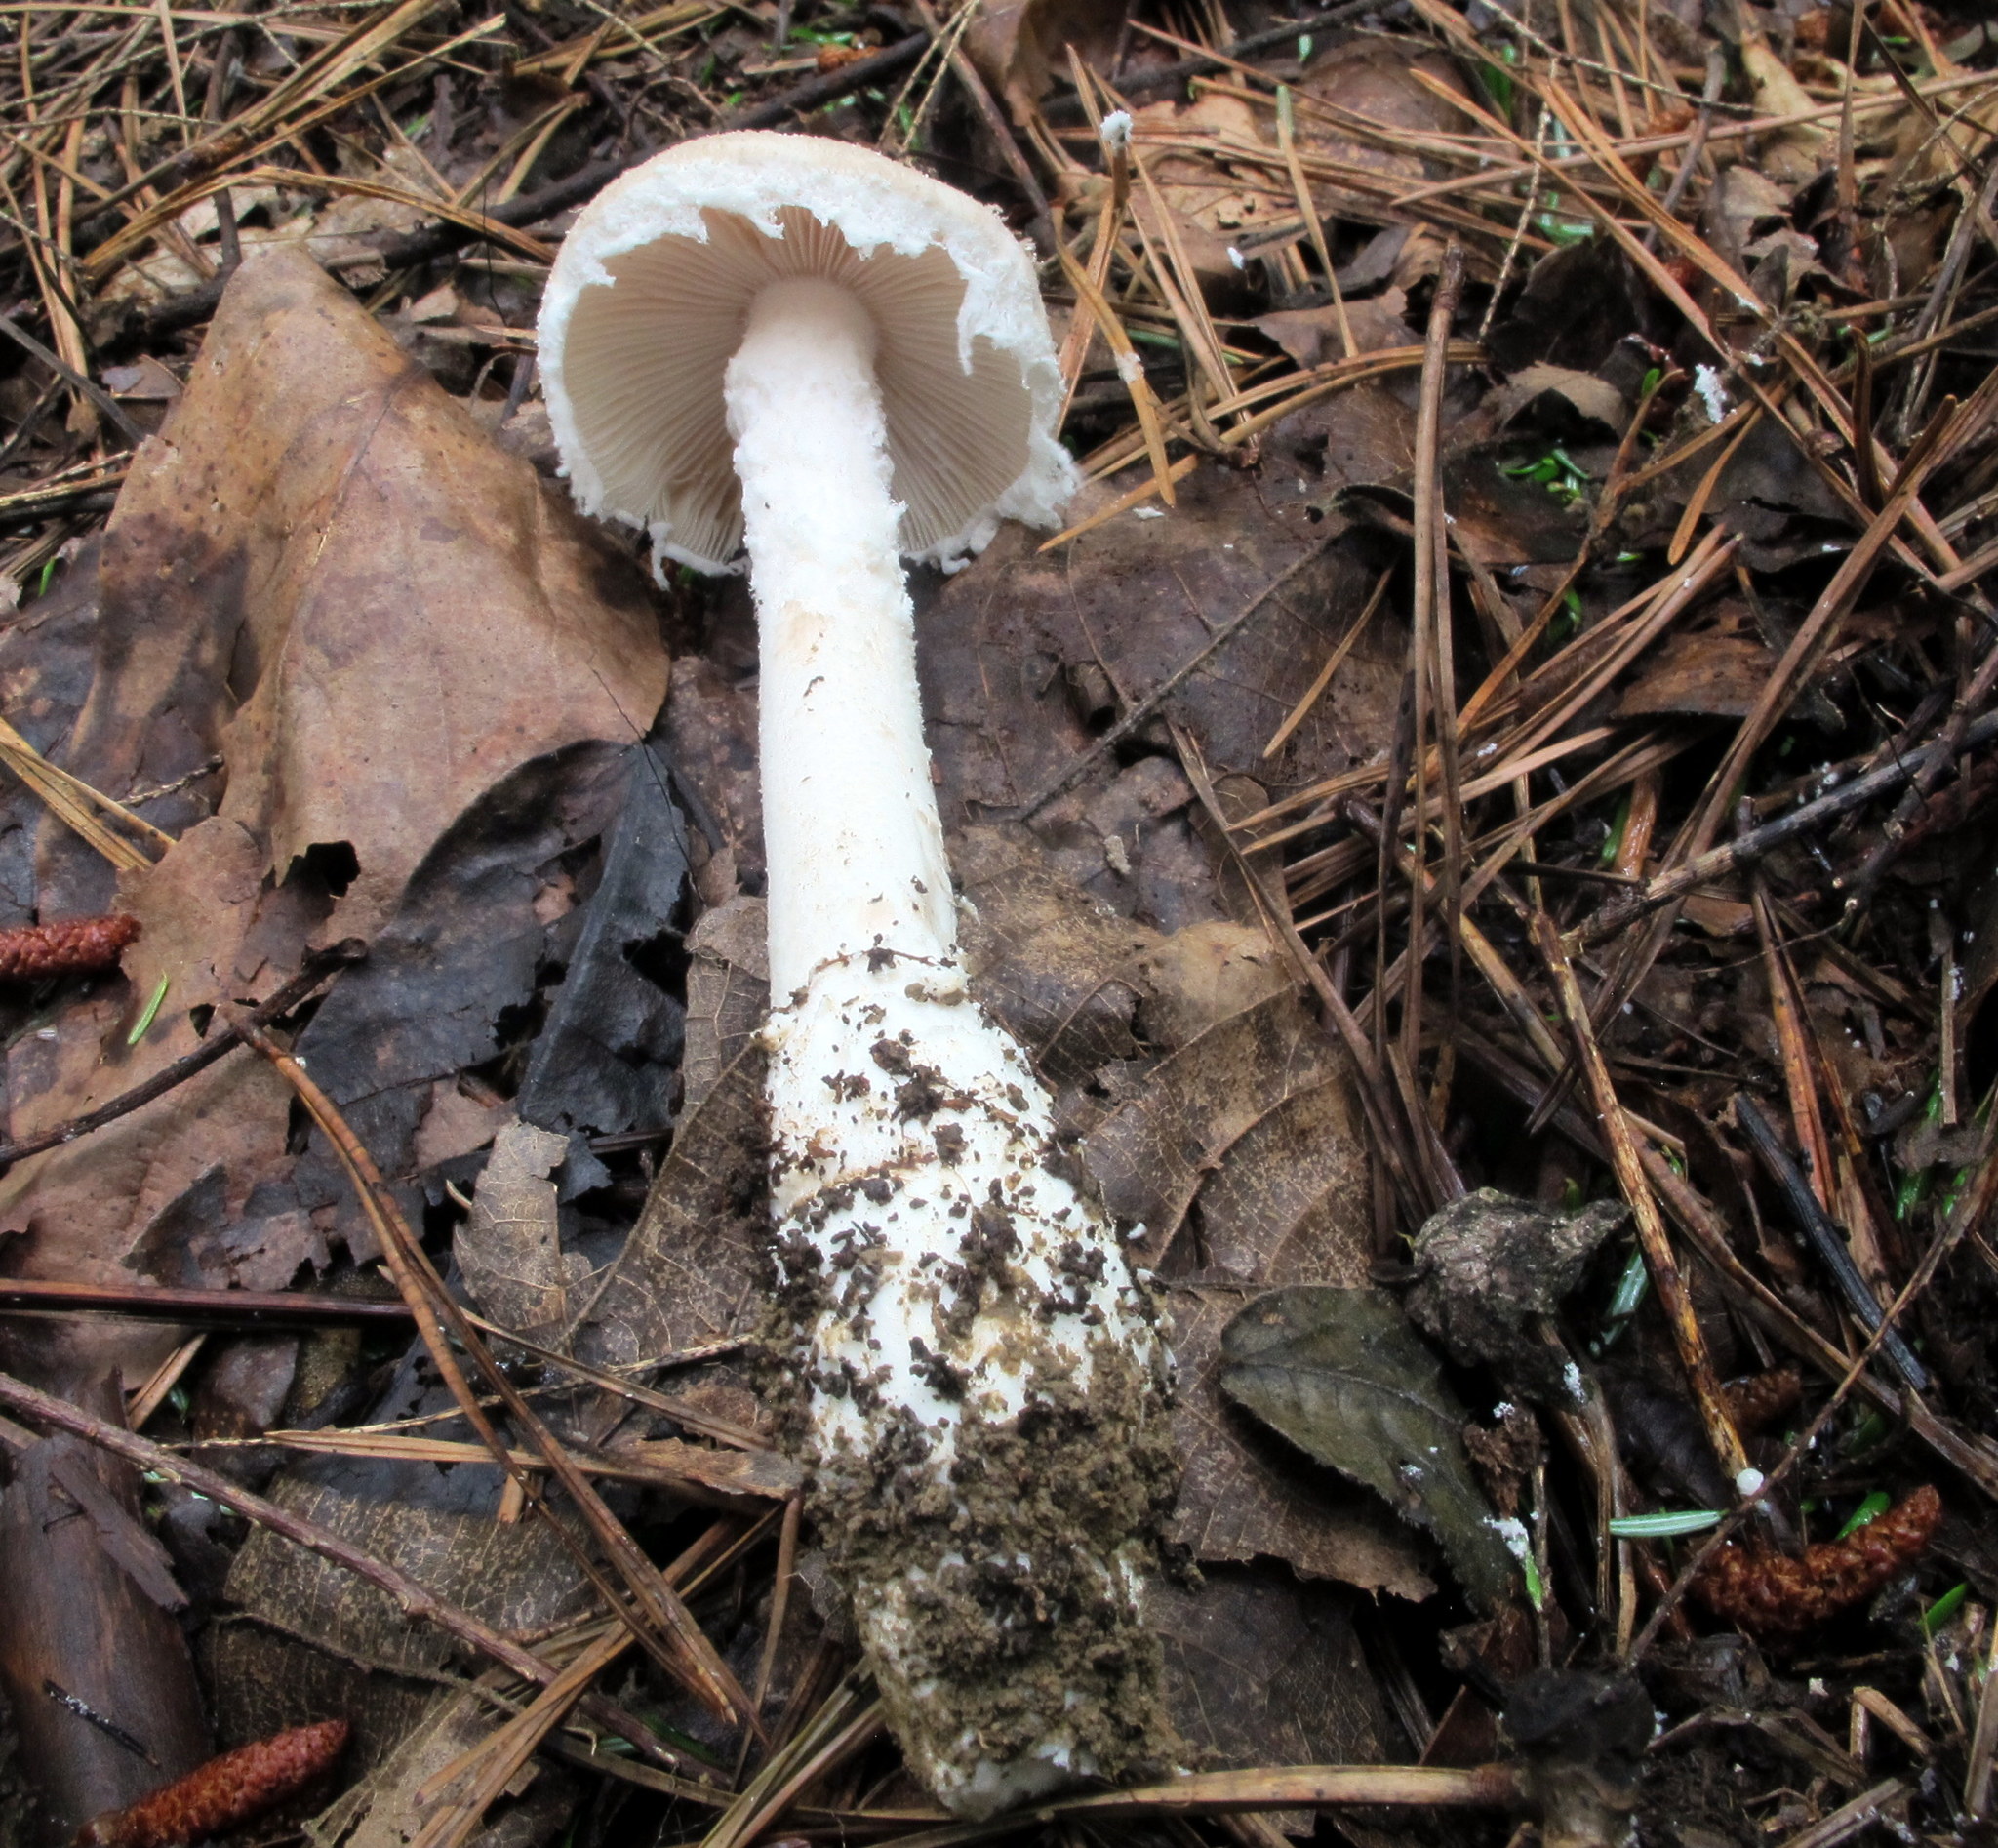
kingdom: Fungi
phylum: Basidiomycota
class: Agaricomycetes
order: Agaricales
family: Amanitaceae
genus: Amanita
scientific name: Amanita chlorinosma
